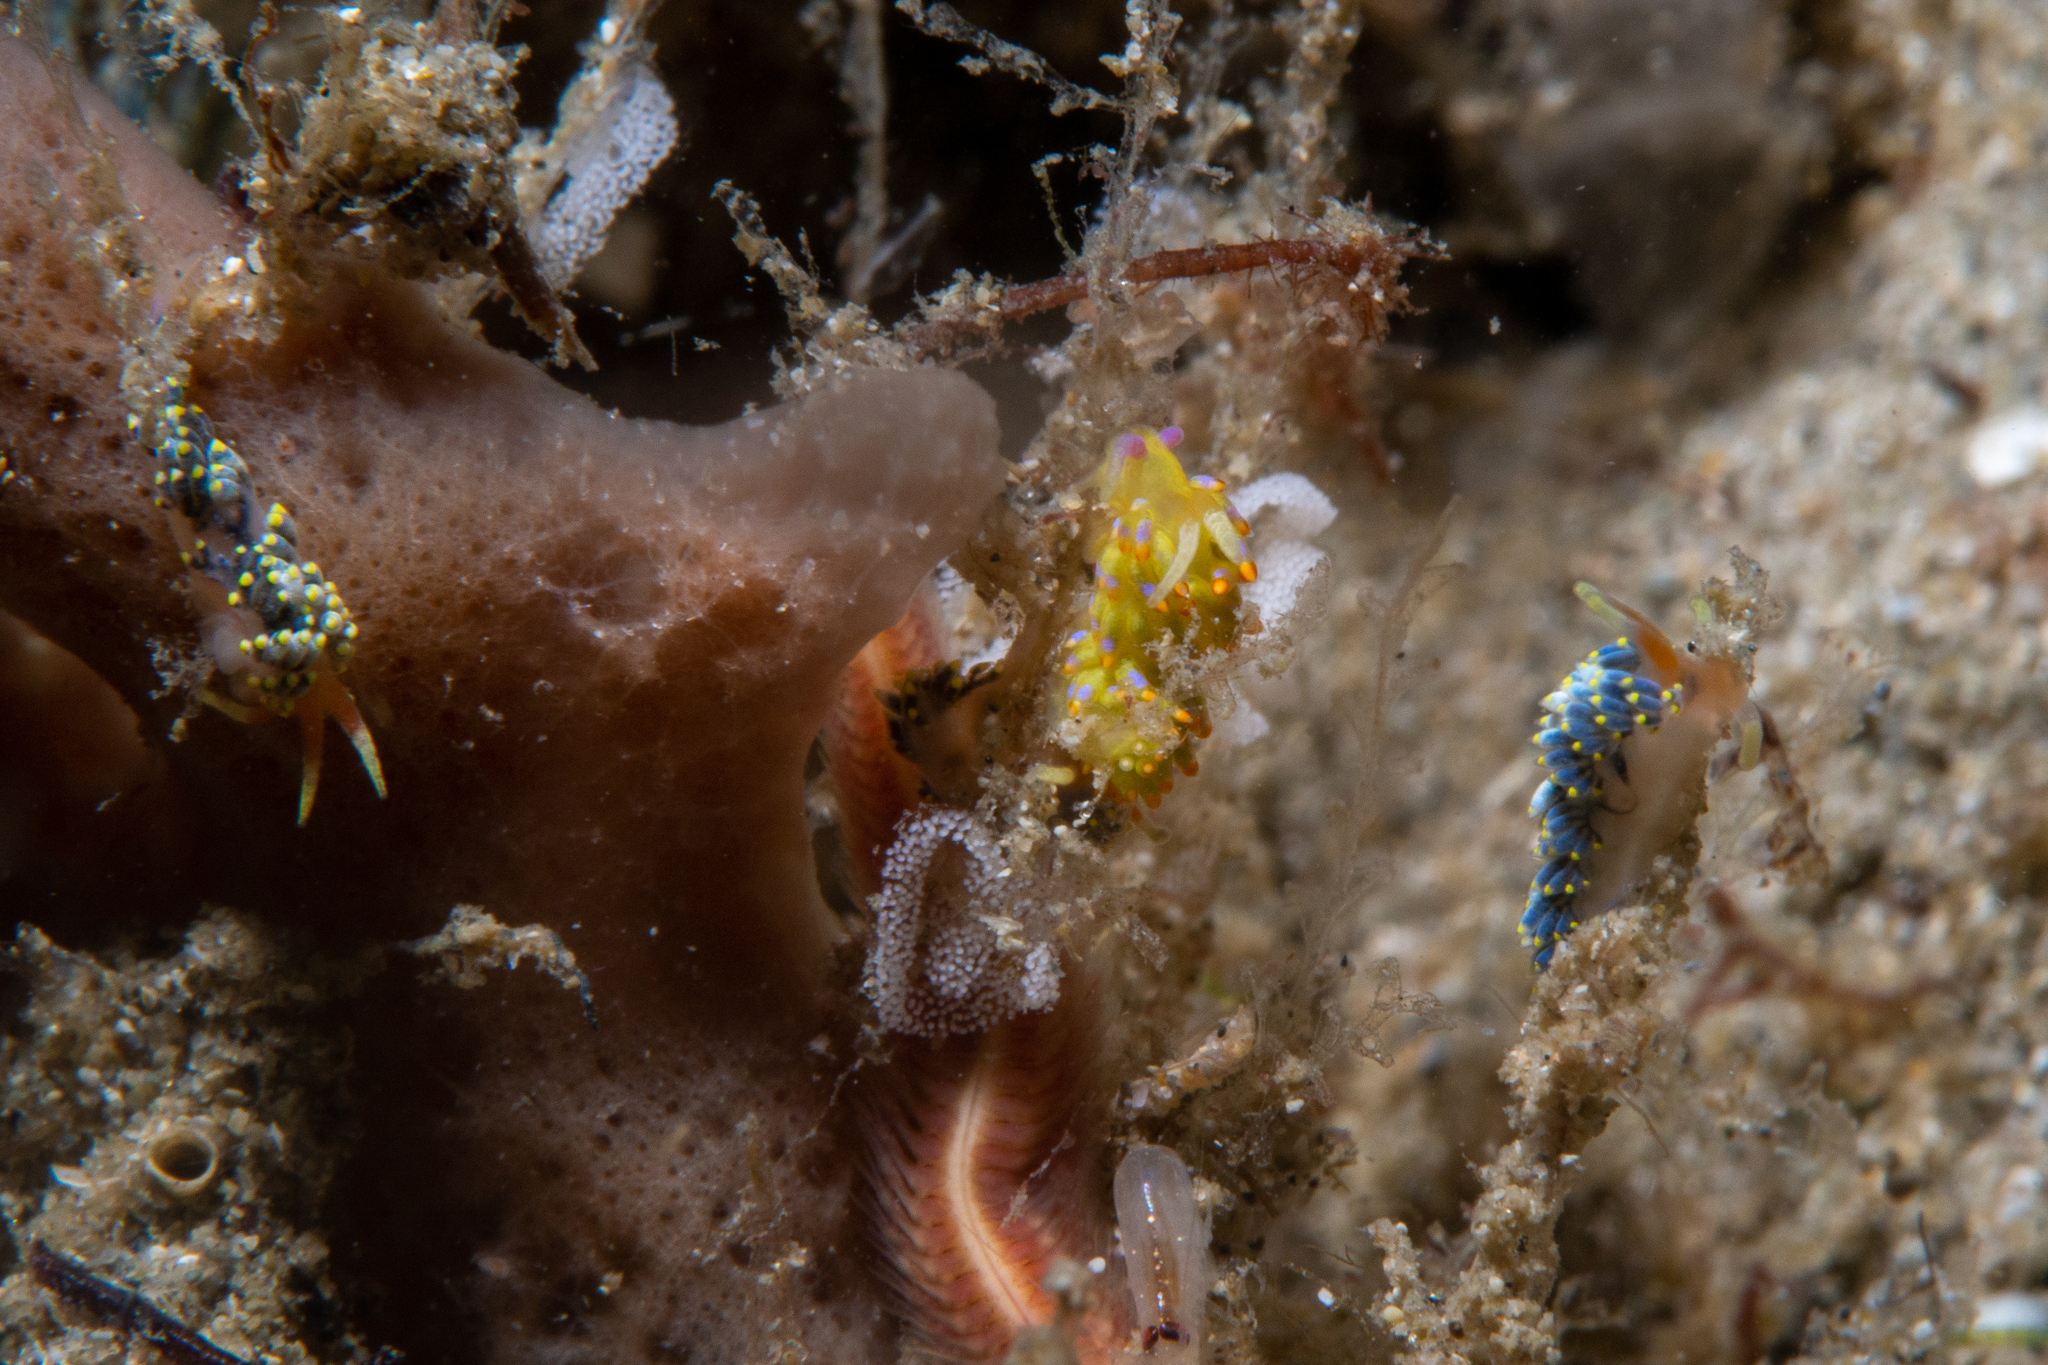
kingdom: Animalia
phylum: Mollusca
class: Gastropoda
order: Nudibranchia
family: Trinchesiidae
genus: Trinchesia
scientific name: Trinchesia catachroma
